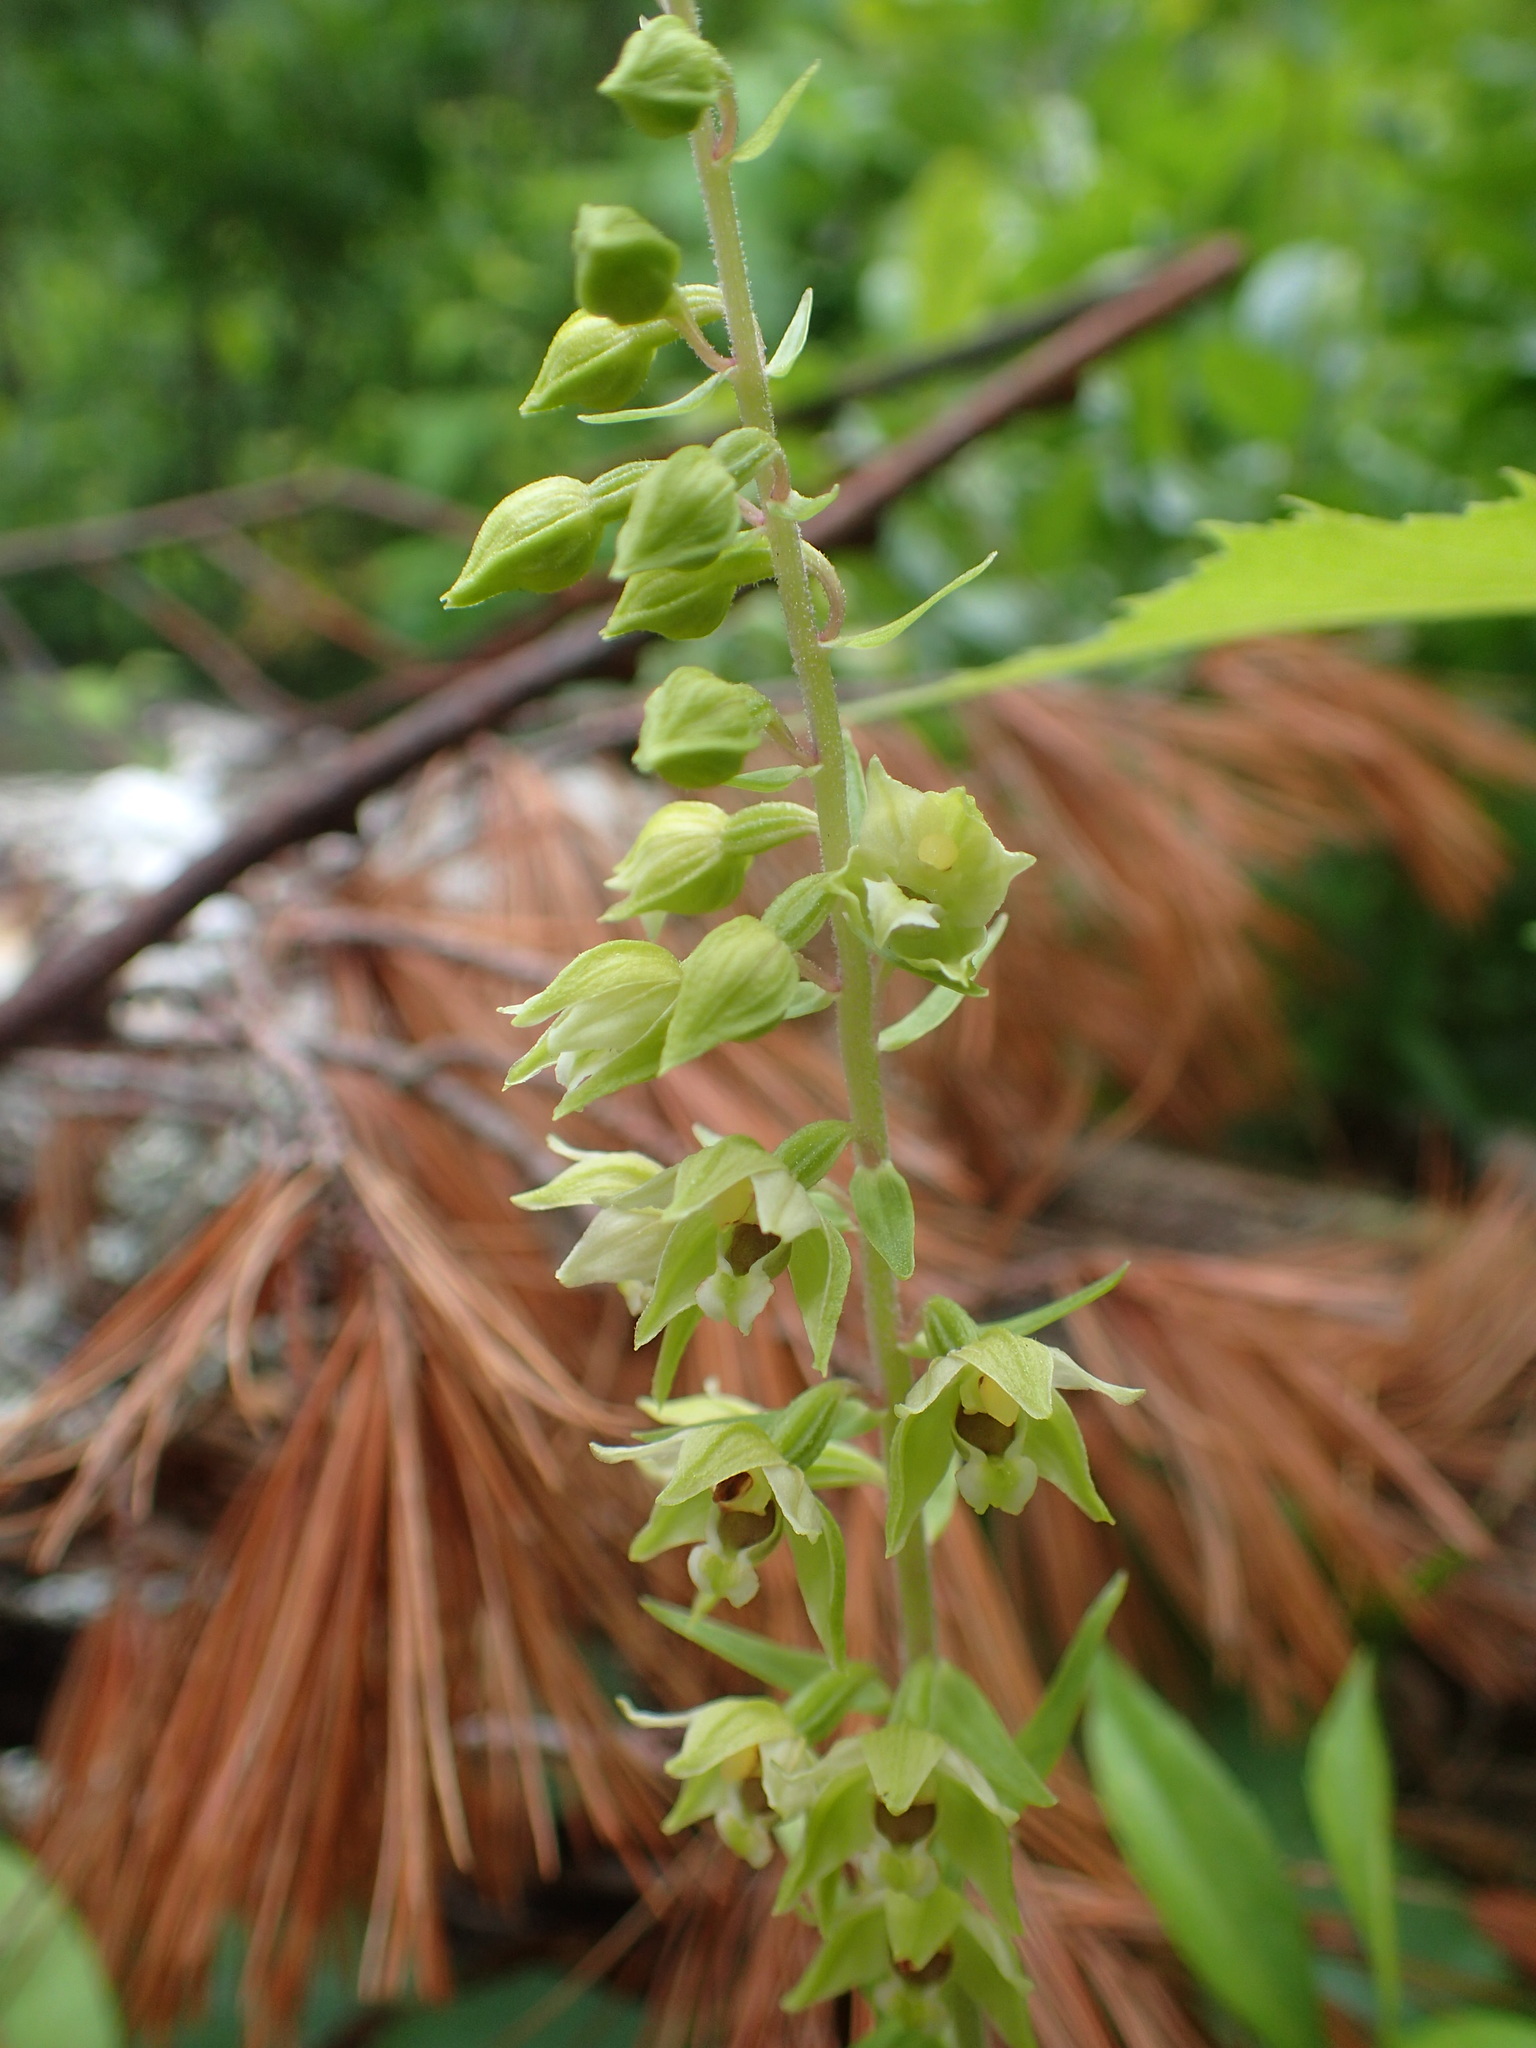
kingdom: Plantae
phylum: Tracheophyta
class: Liliopsida
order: Asparagales
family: Orchidaceae
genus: Epipactis
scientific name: Epipactis helleborine
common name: Broad-leaved helleborine
